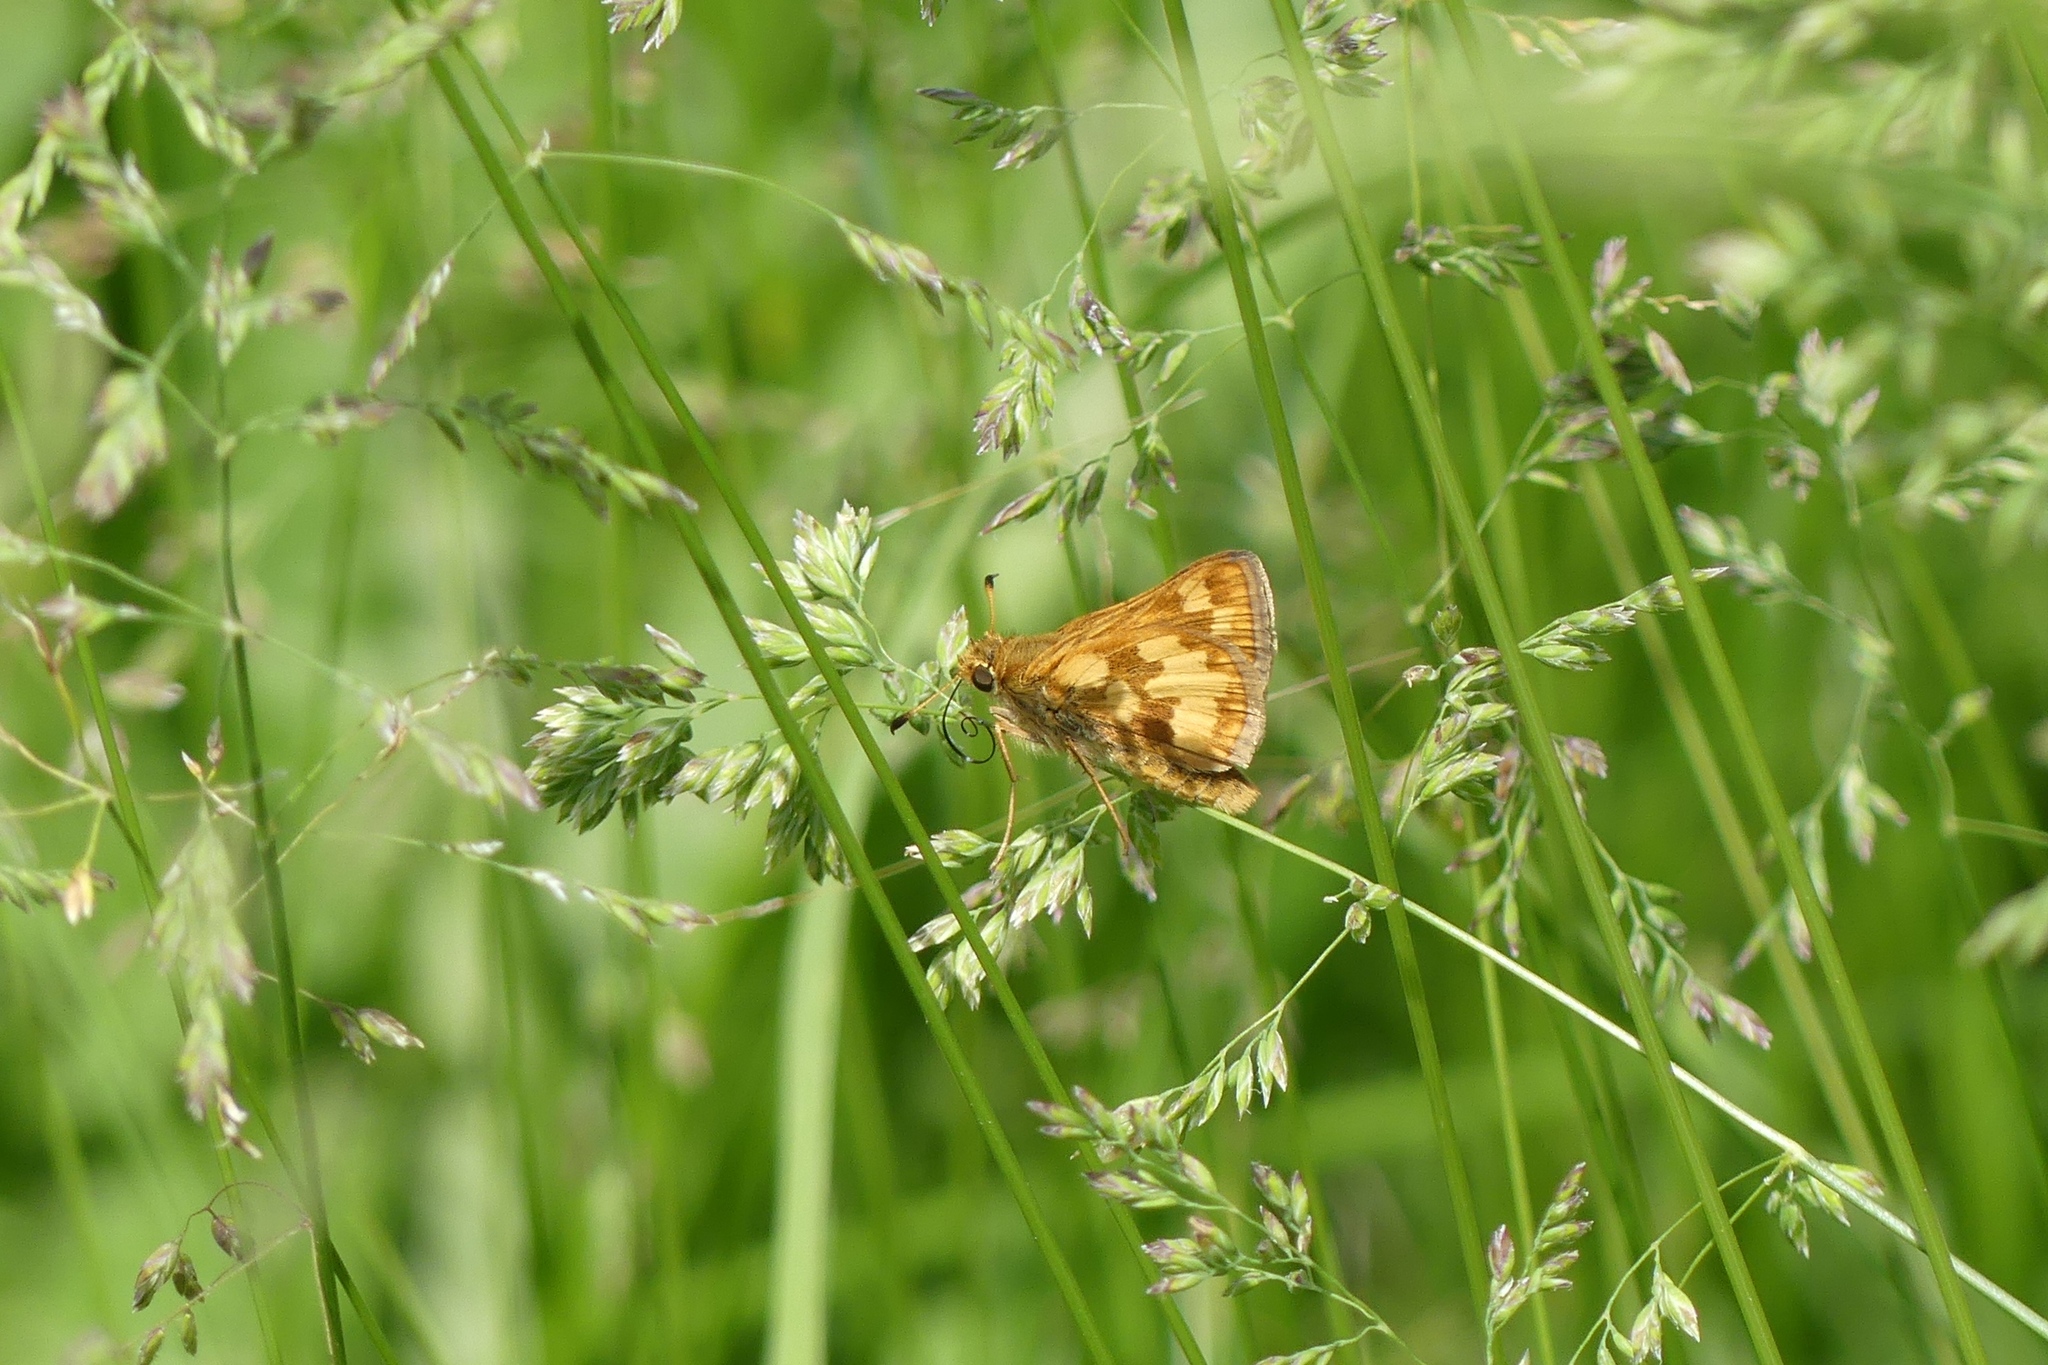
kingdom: Animalia
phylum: Arthropoda
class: Insecta
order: Lepidoptera
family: Hesperiidae
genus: Polites
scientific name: Polites coras
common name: Peck's skipper
